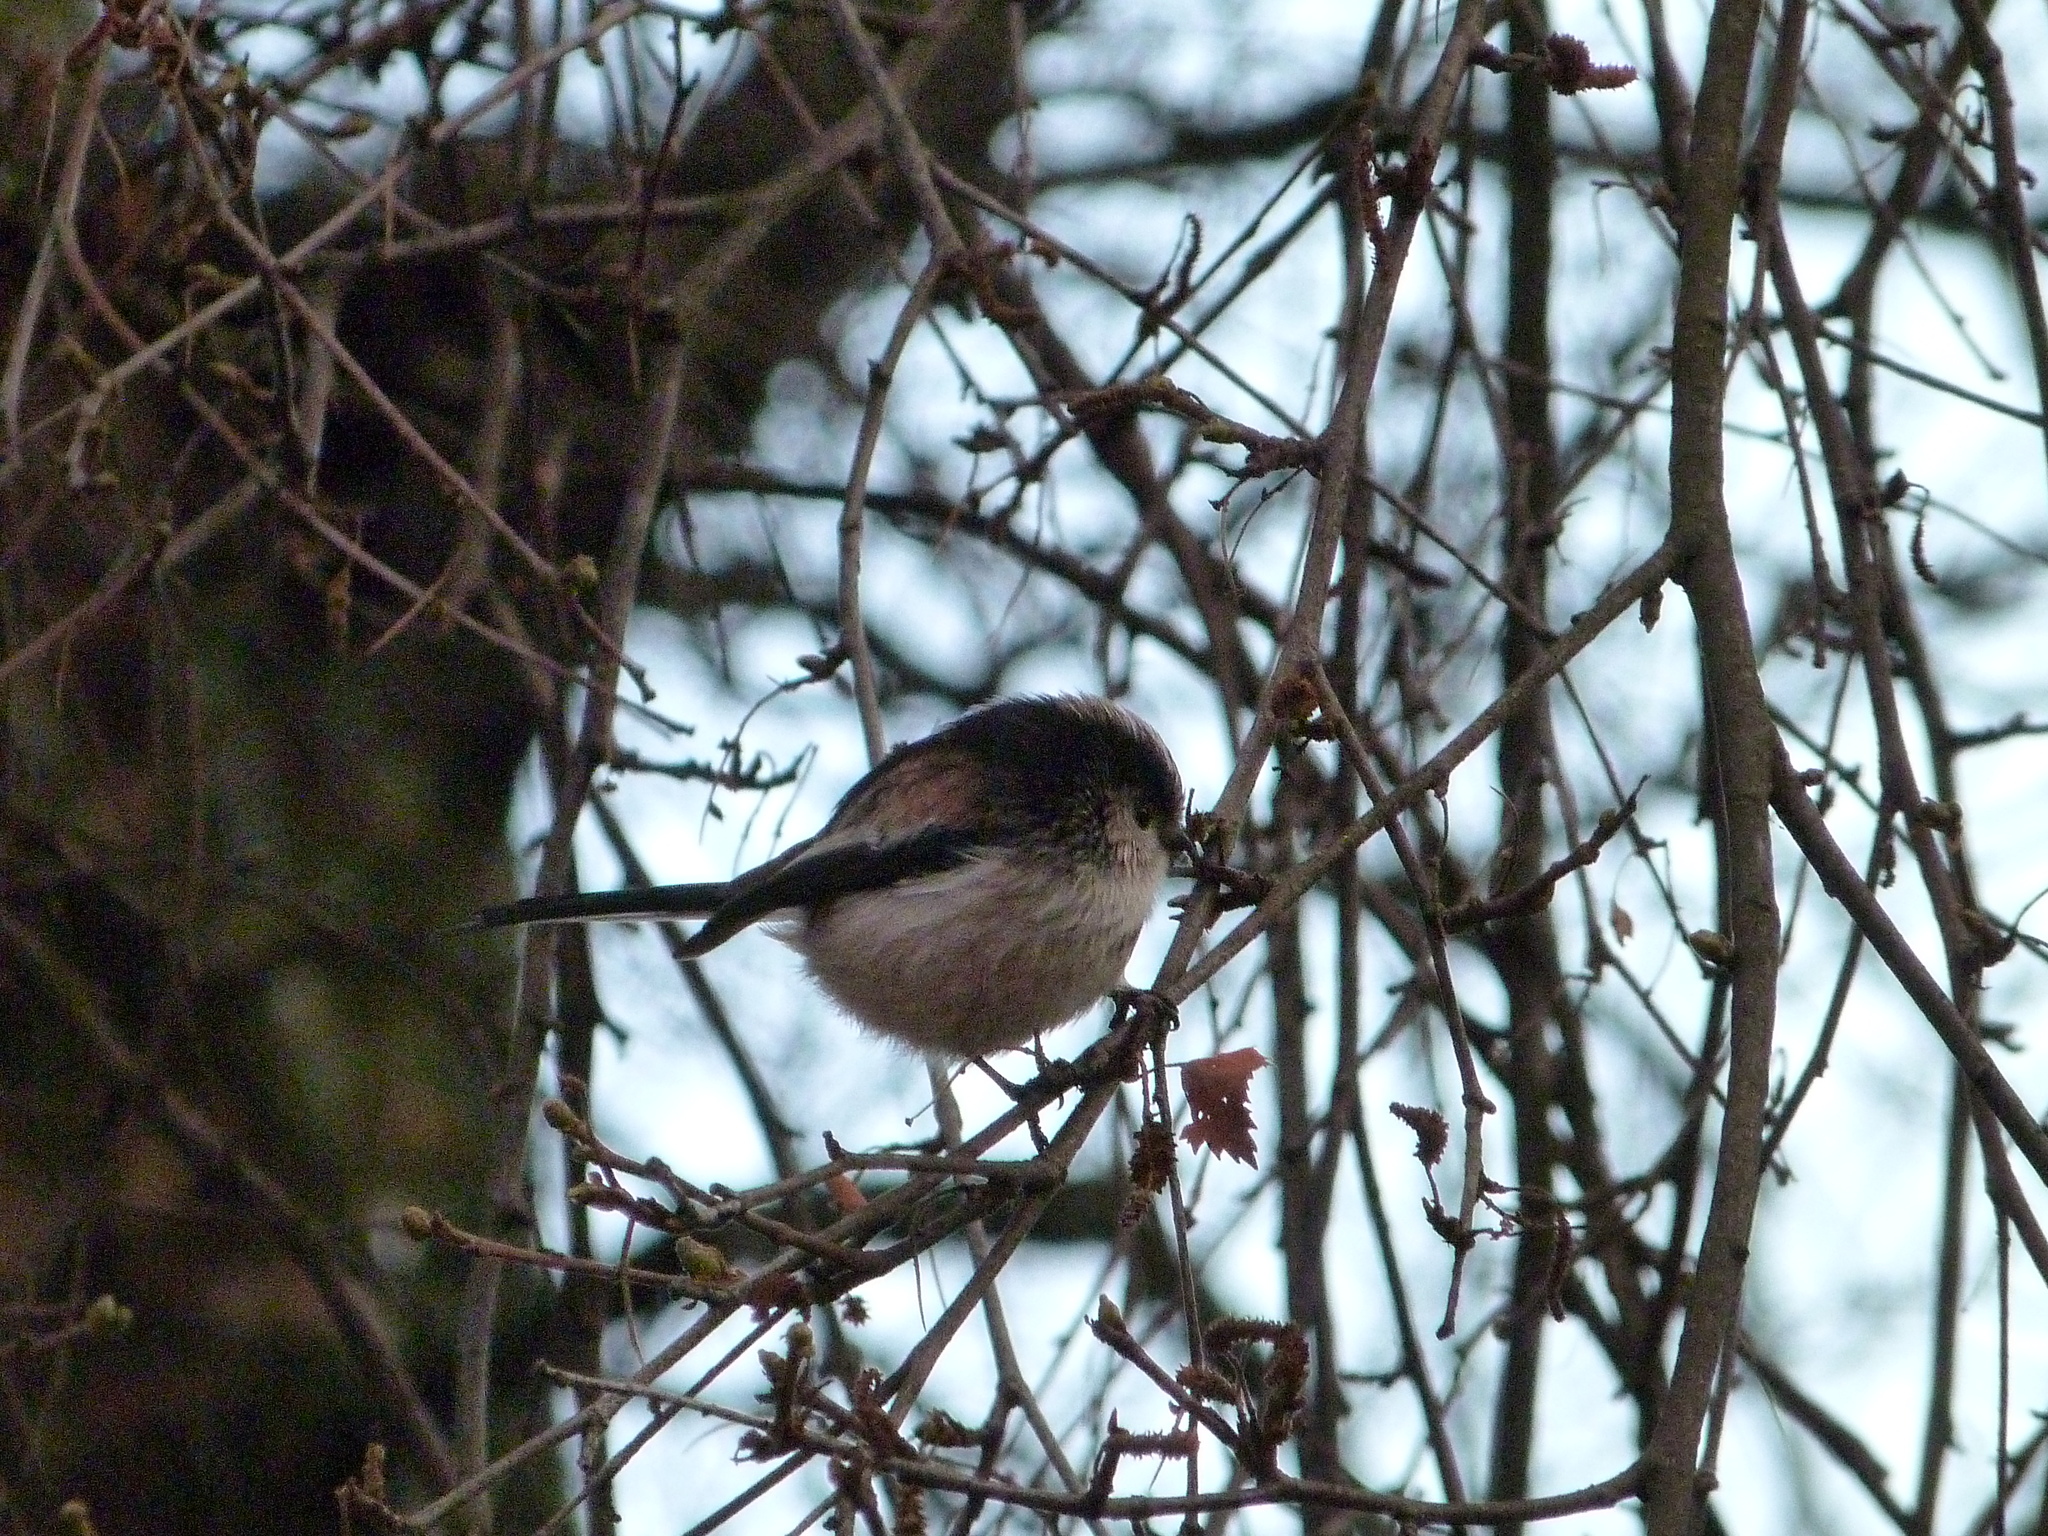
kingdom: Animalia
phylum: Chordata
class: Aves
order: Passeriformes
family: Aegithalidae
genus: Aegithalos
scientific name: Aegithalos caudatus
